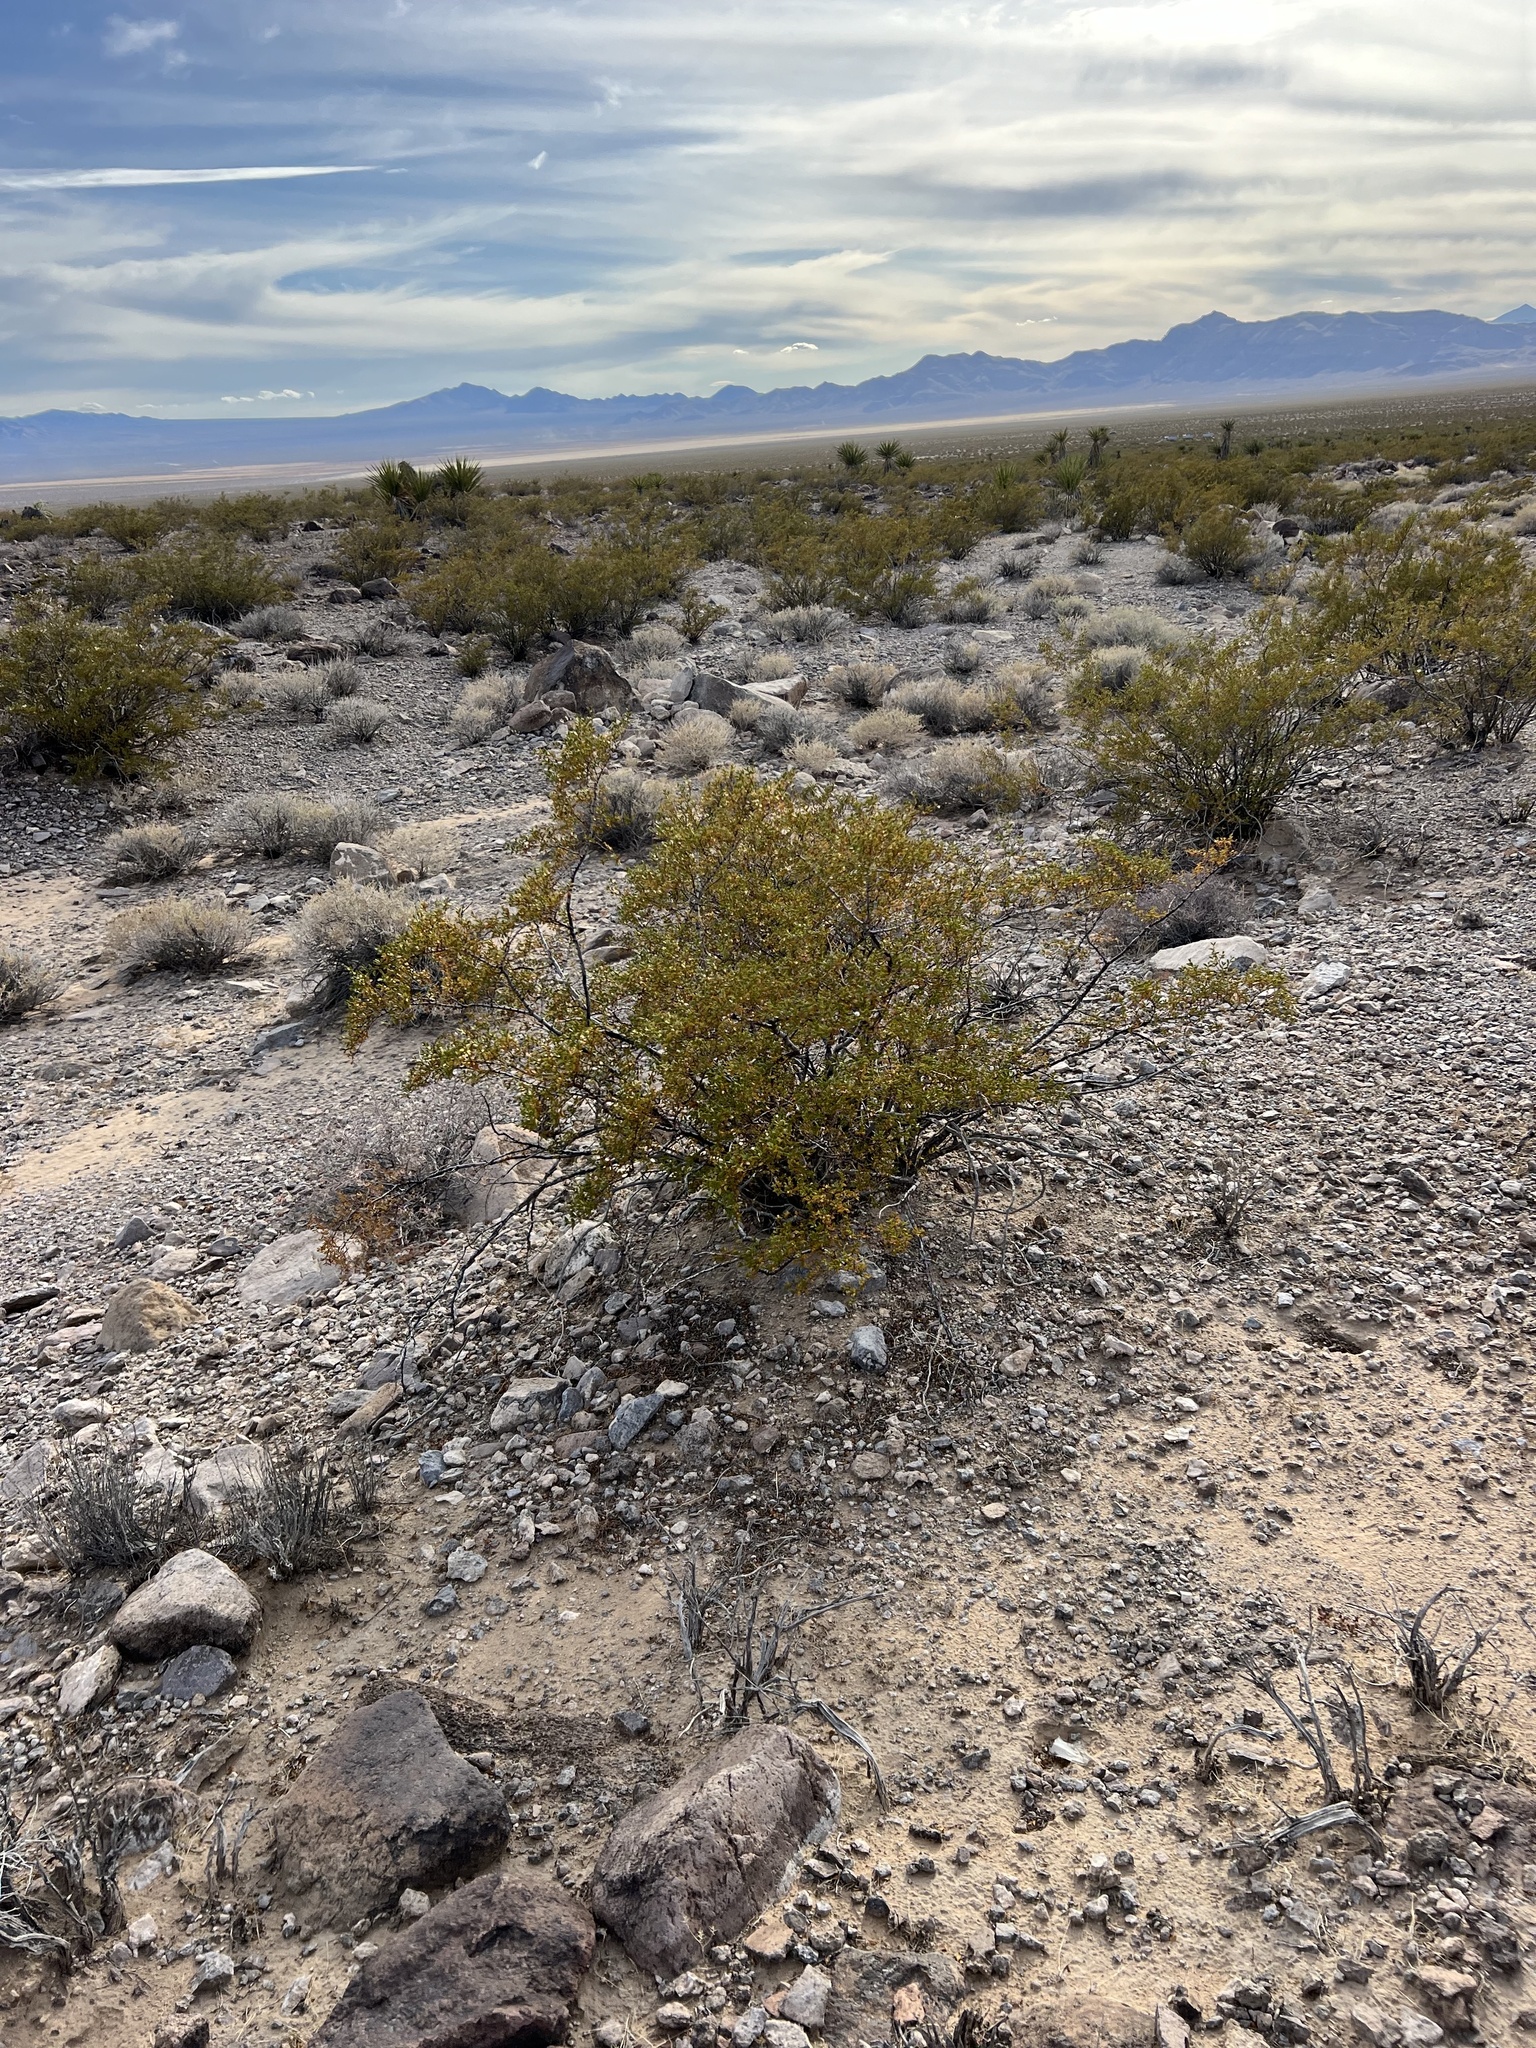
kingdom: Plantae
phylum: Tracheophyta
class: Magnoliopsida
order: Zygophyllales
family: Zygophyllaceae
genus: Larrea
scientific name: Larrea tridentata
